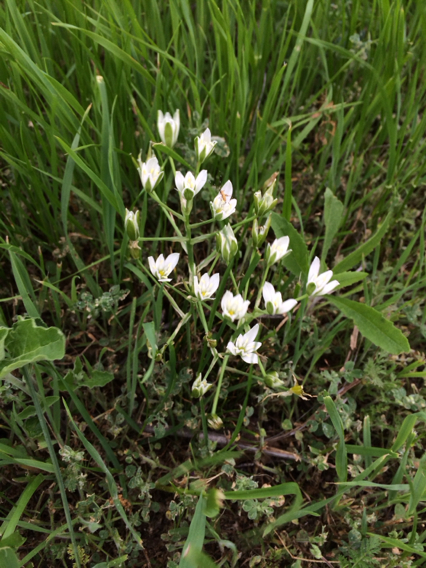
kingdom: Plantae
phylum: Tracheophyta
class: Liliopsida
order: Asparagales
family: Asparagaceae
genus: Ornithogalum
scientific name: Ornithogalum umbellatum
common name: Garden star-of-bethlehem
